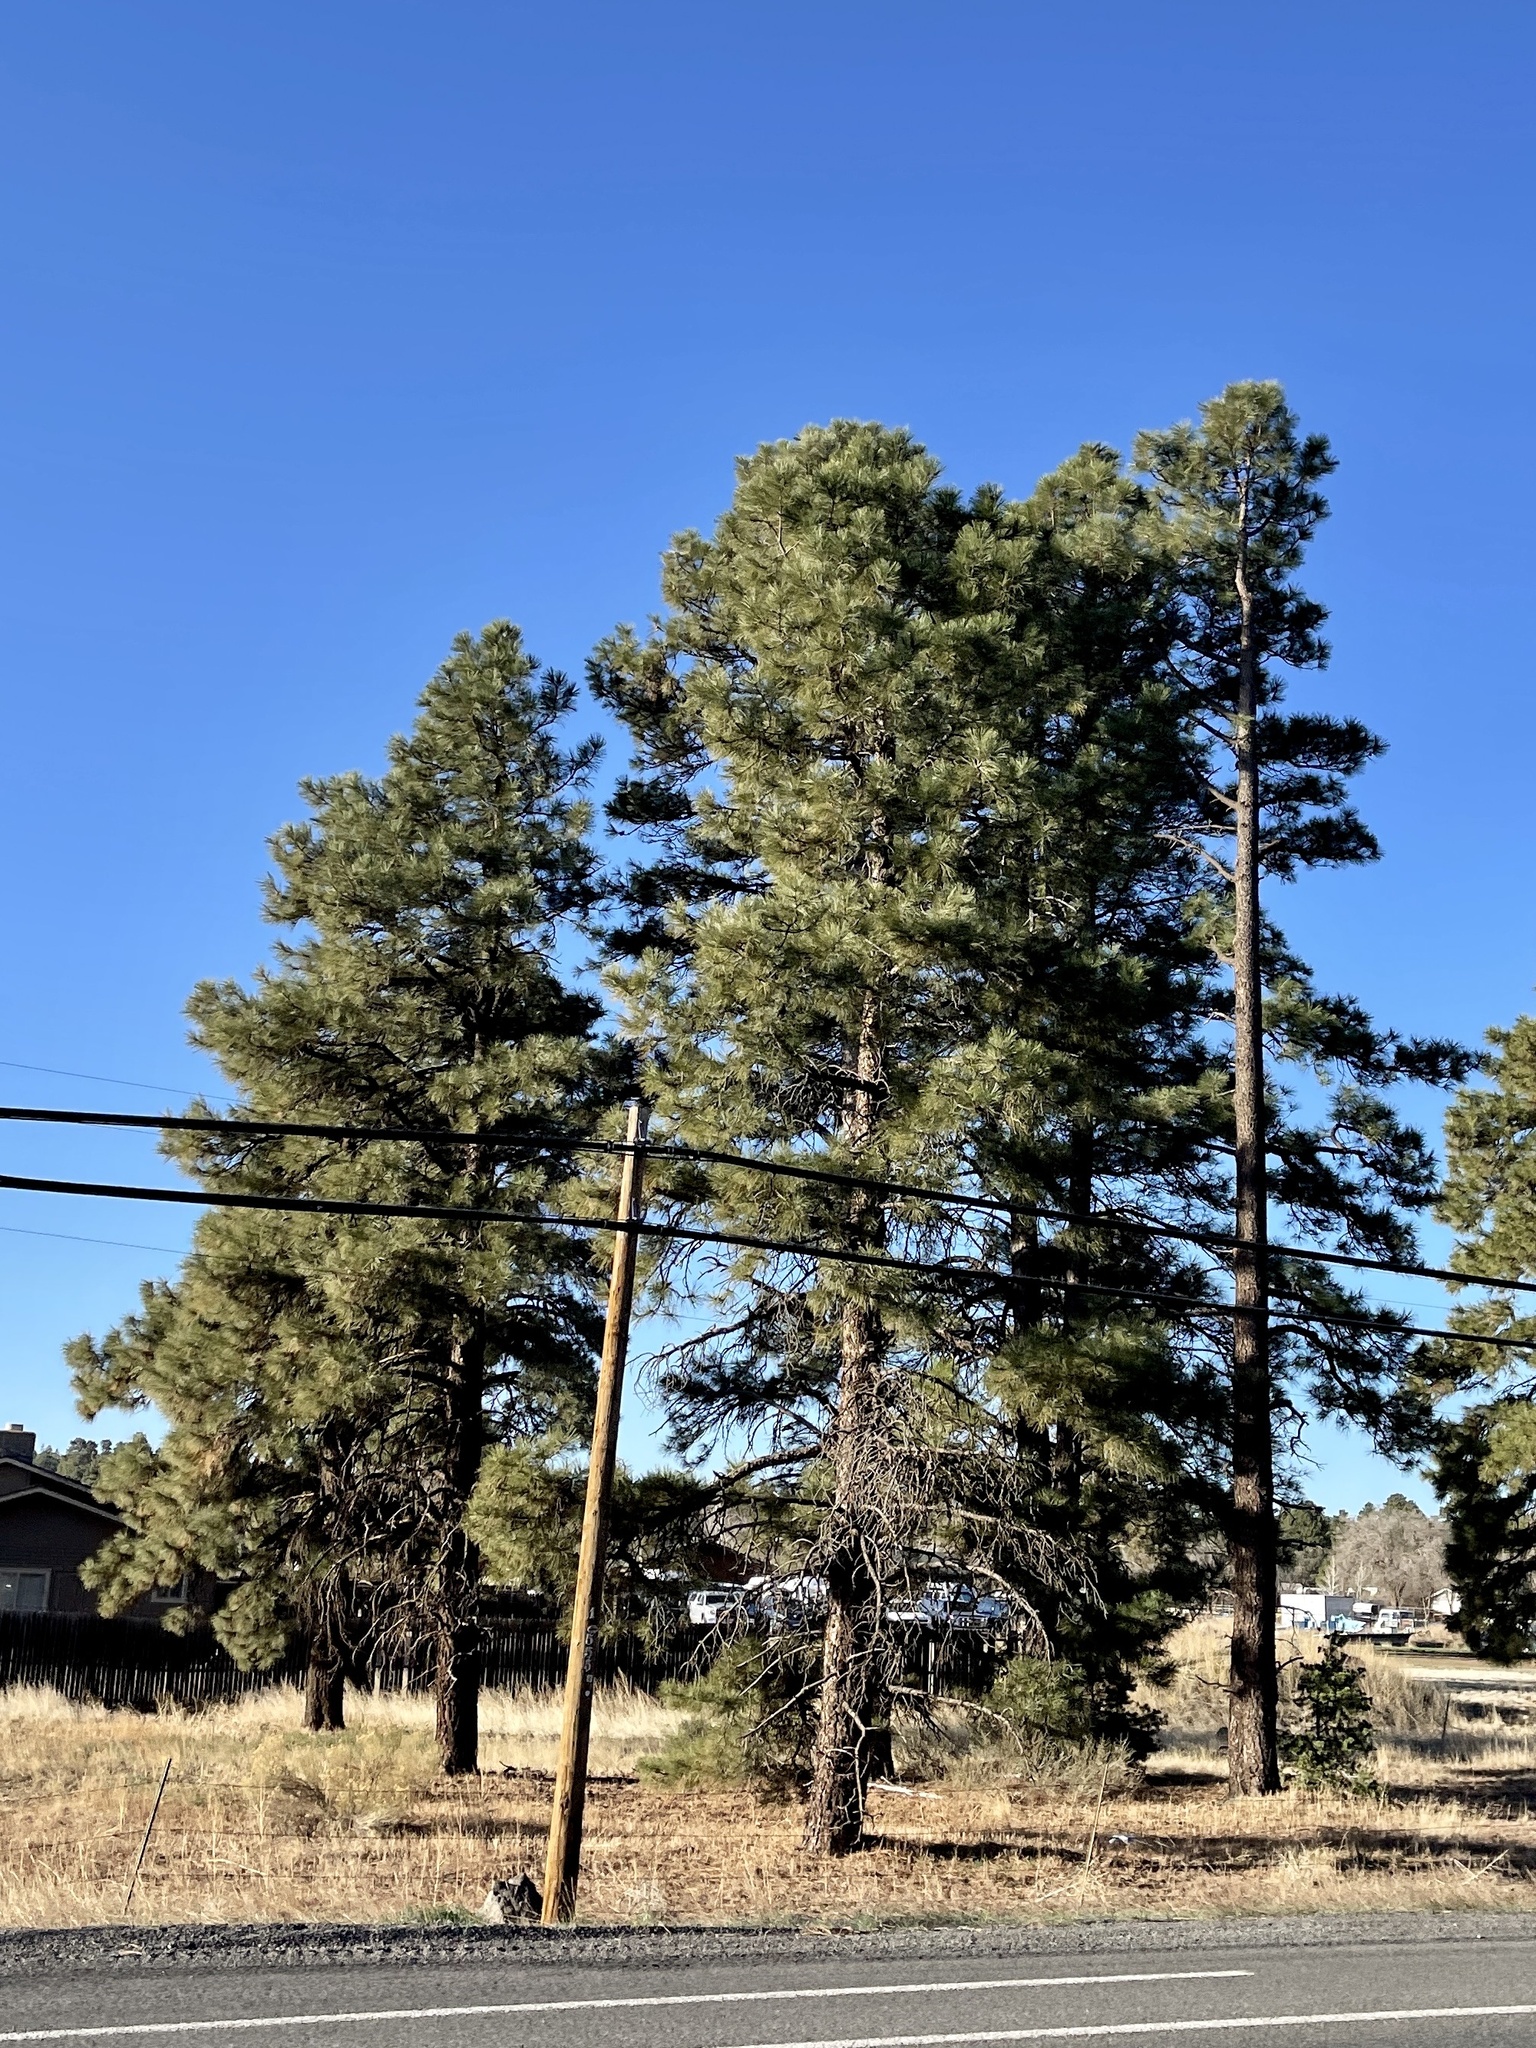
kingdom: Plantae
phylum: Tracheophyta
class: Pinopsida
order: Pinales
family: Pinaceae
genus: Pinus
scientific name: Pinus ponderosa
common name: Western yellow-pine
